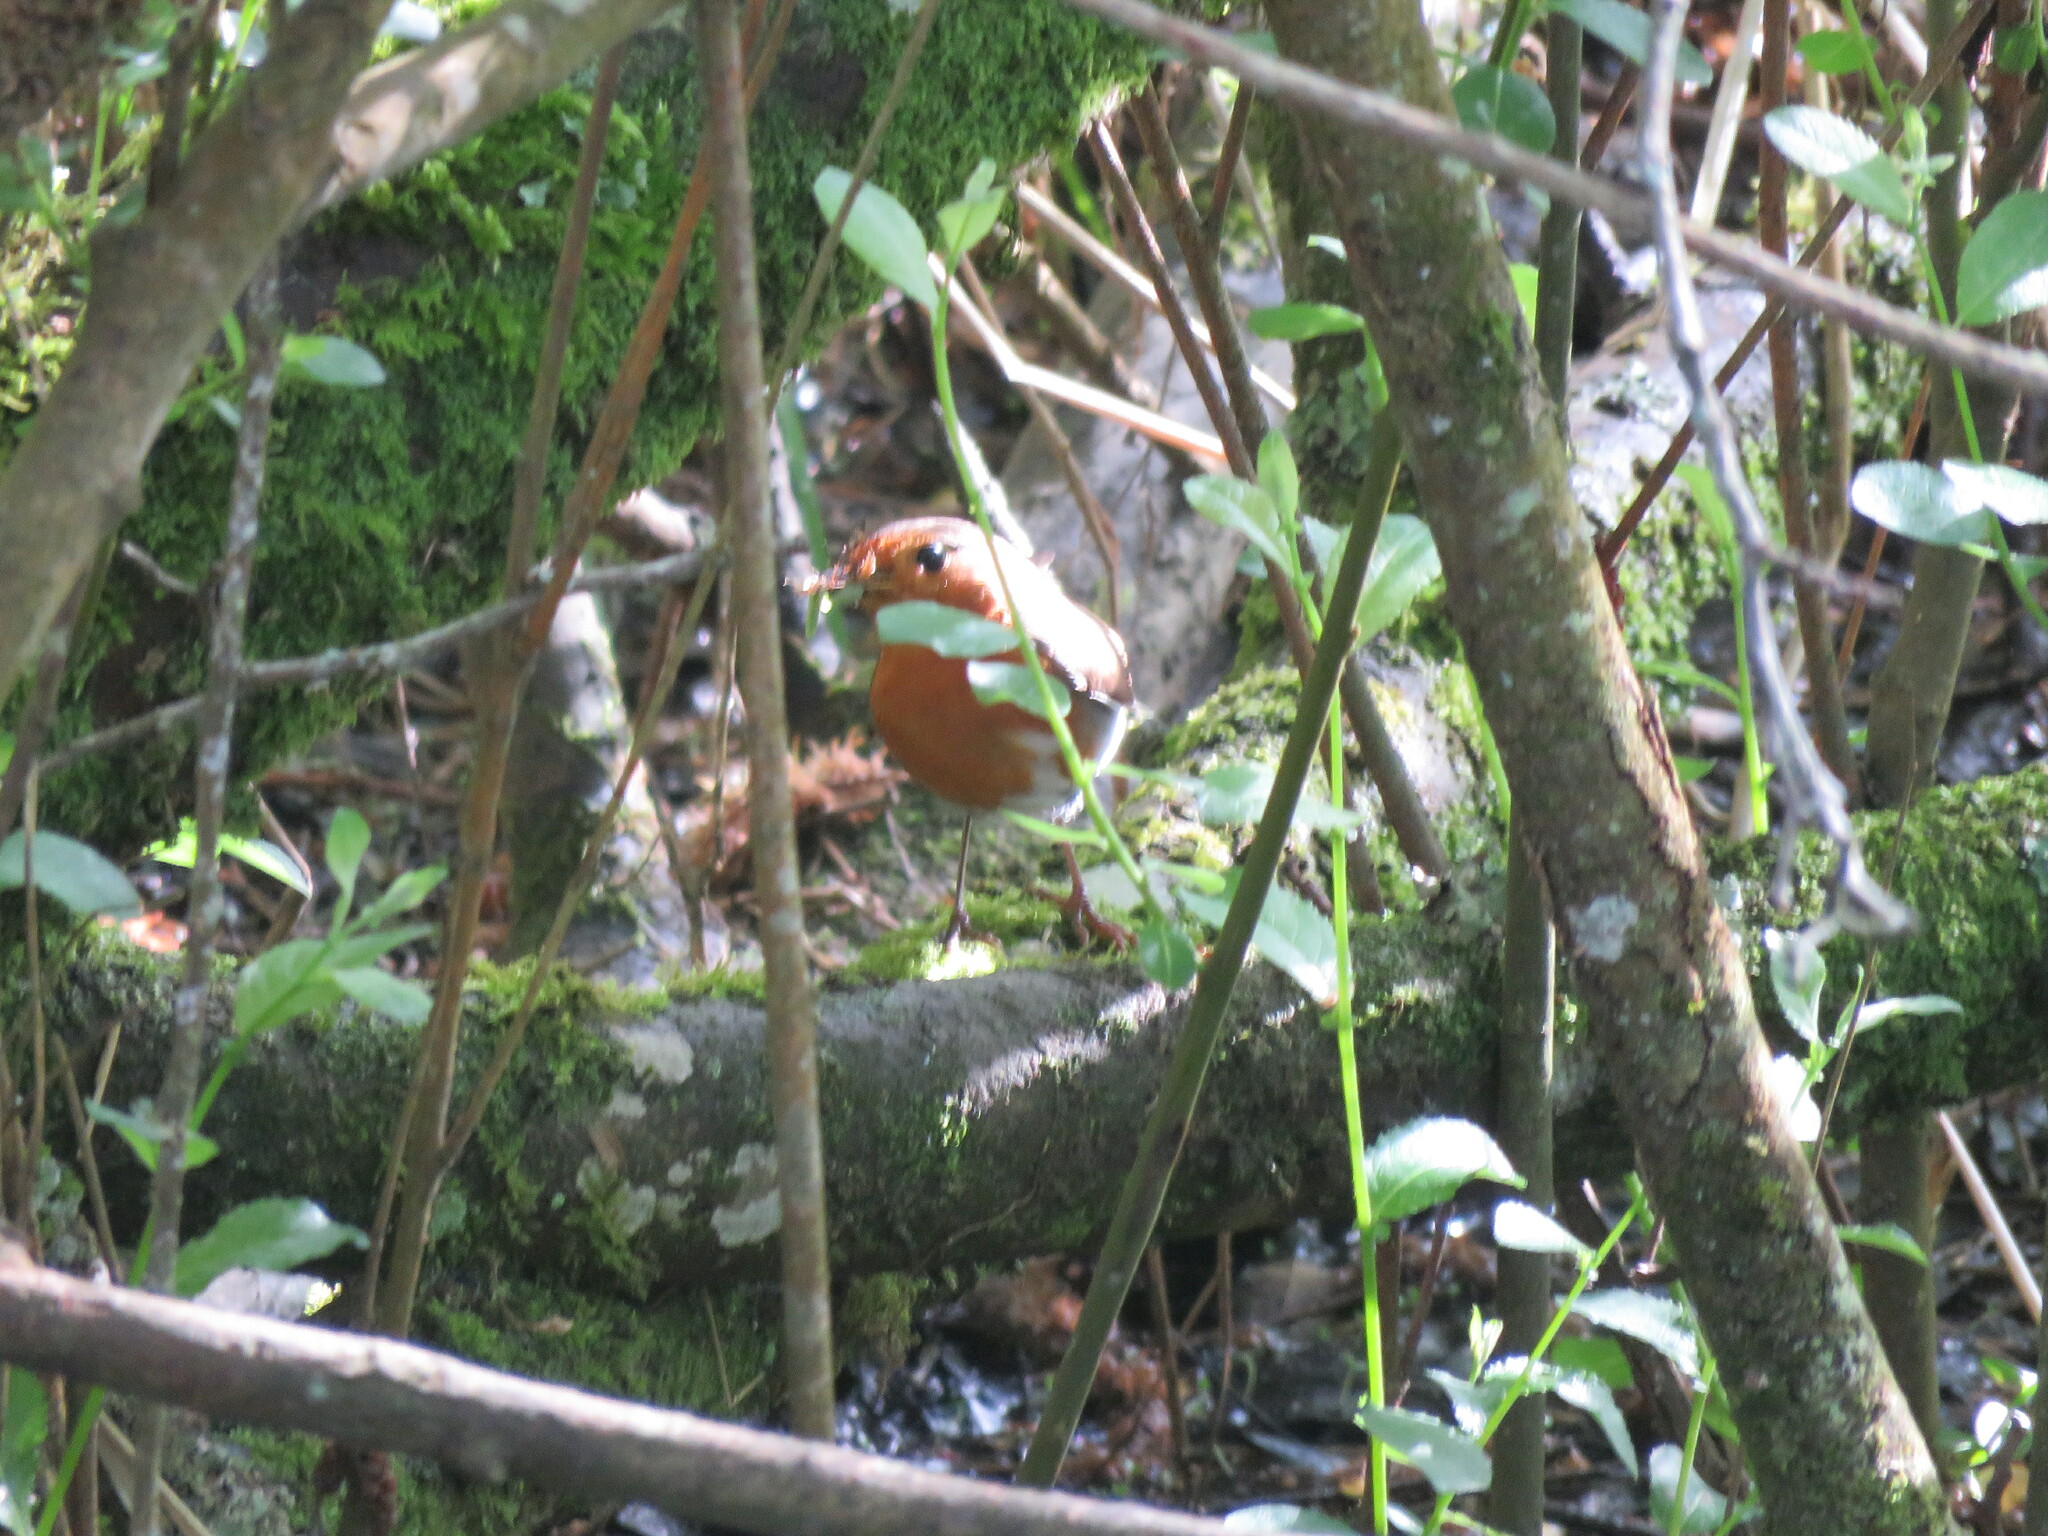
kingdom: Animalia
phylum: Chordata
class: Aves
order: Passeriformes
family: Muscicapidae
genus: Erithacus
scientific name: Erithacus rubecula
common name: European robin
